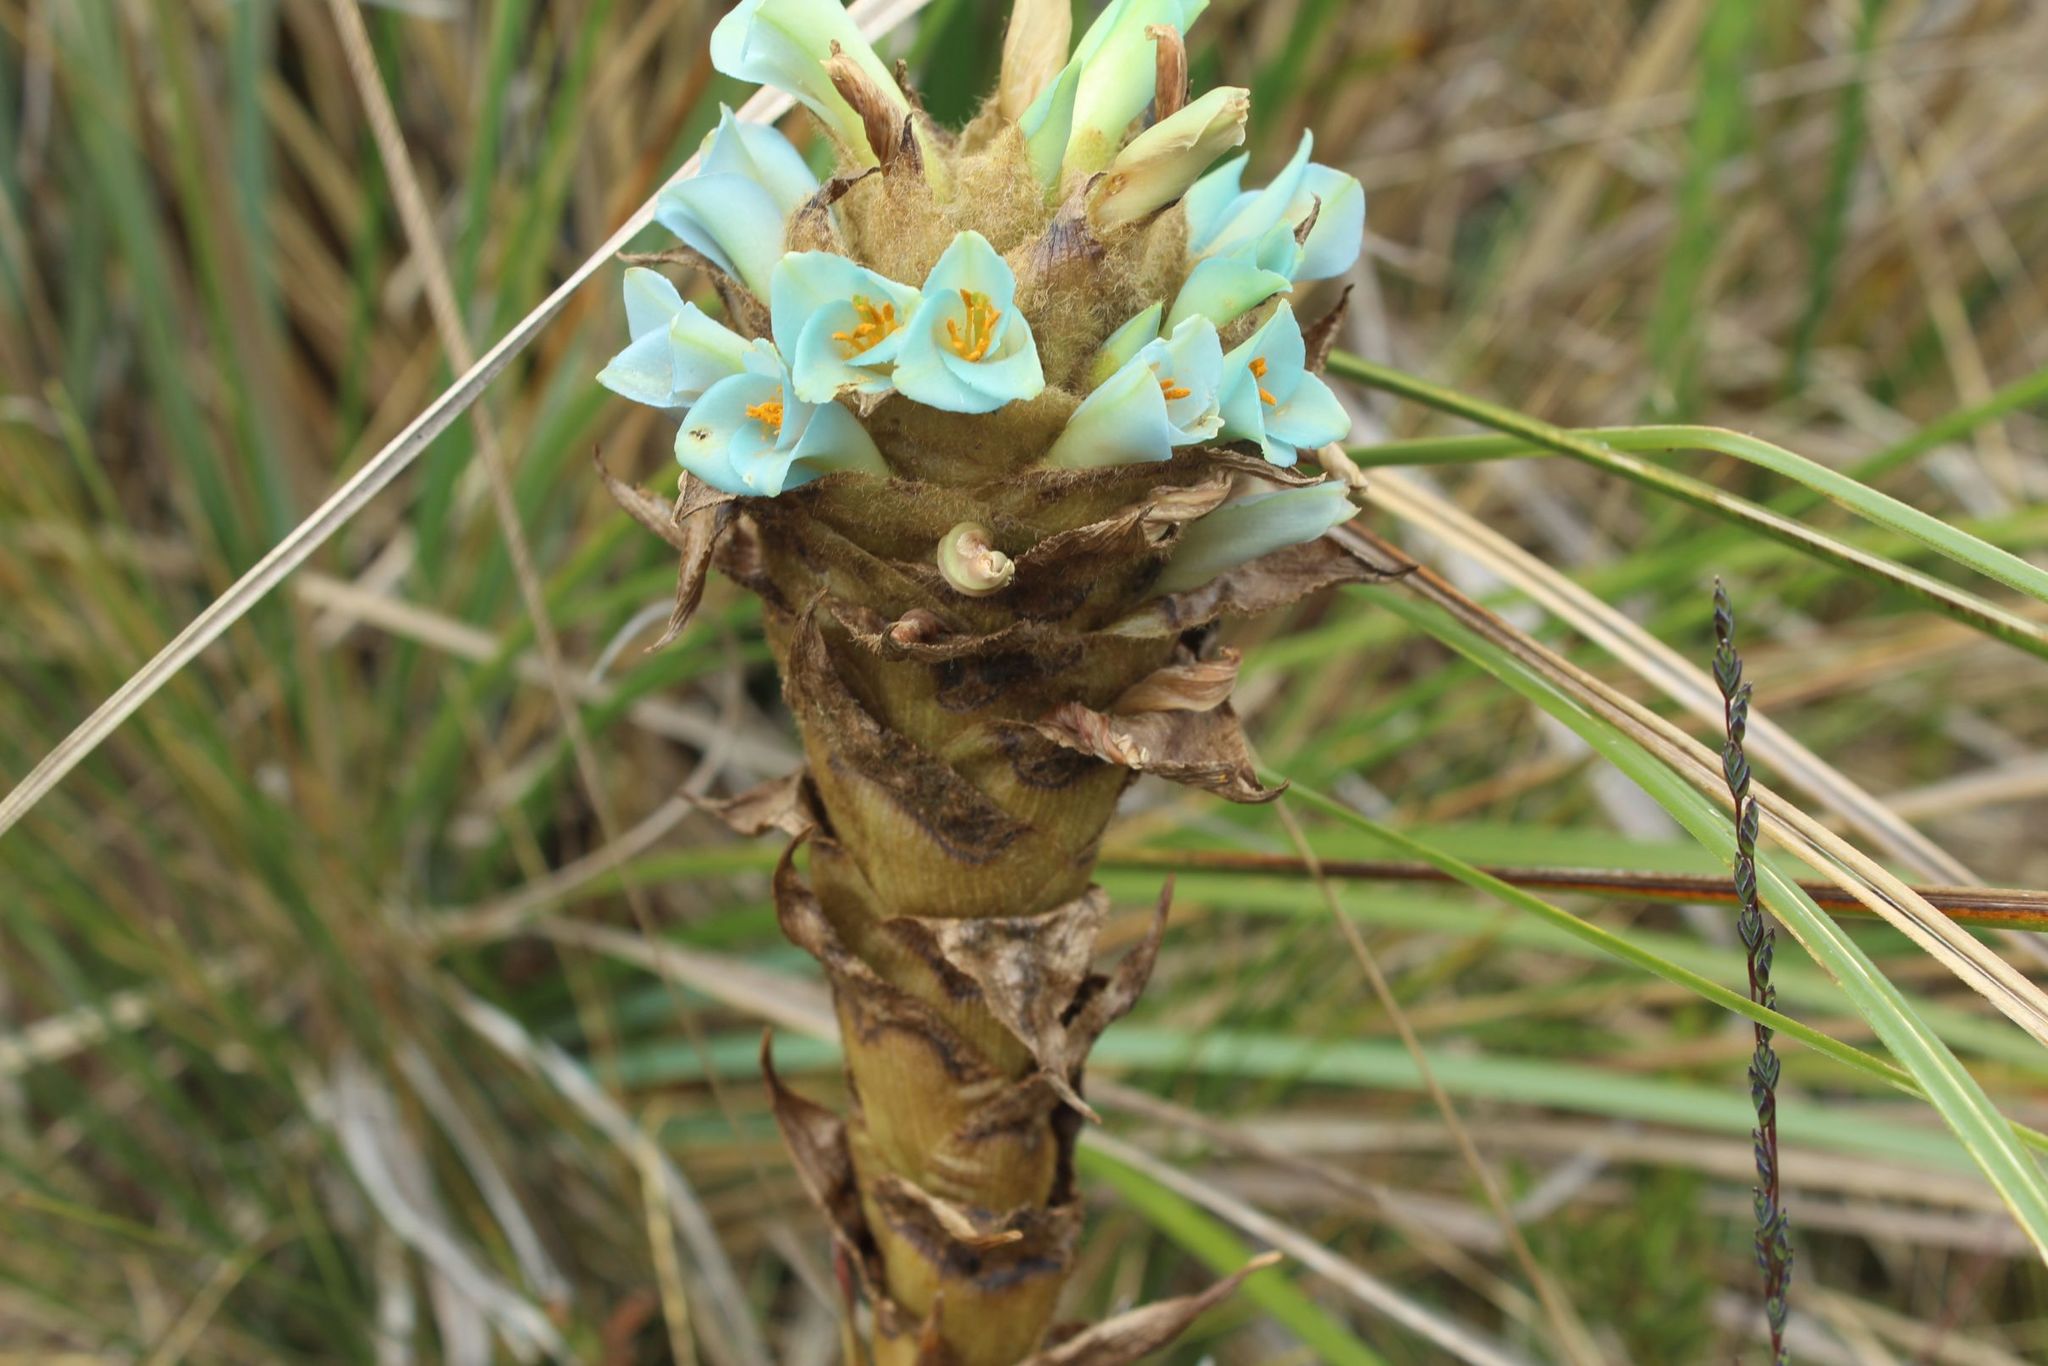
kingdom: Plantae
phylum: Tracheophyta
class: Liliopsida
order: Poales
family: Bromeliaceae
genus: Puya
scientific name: Puya boyacana
